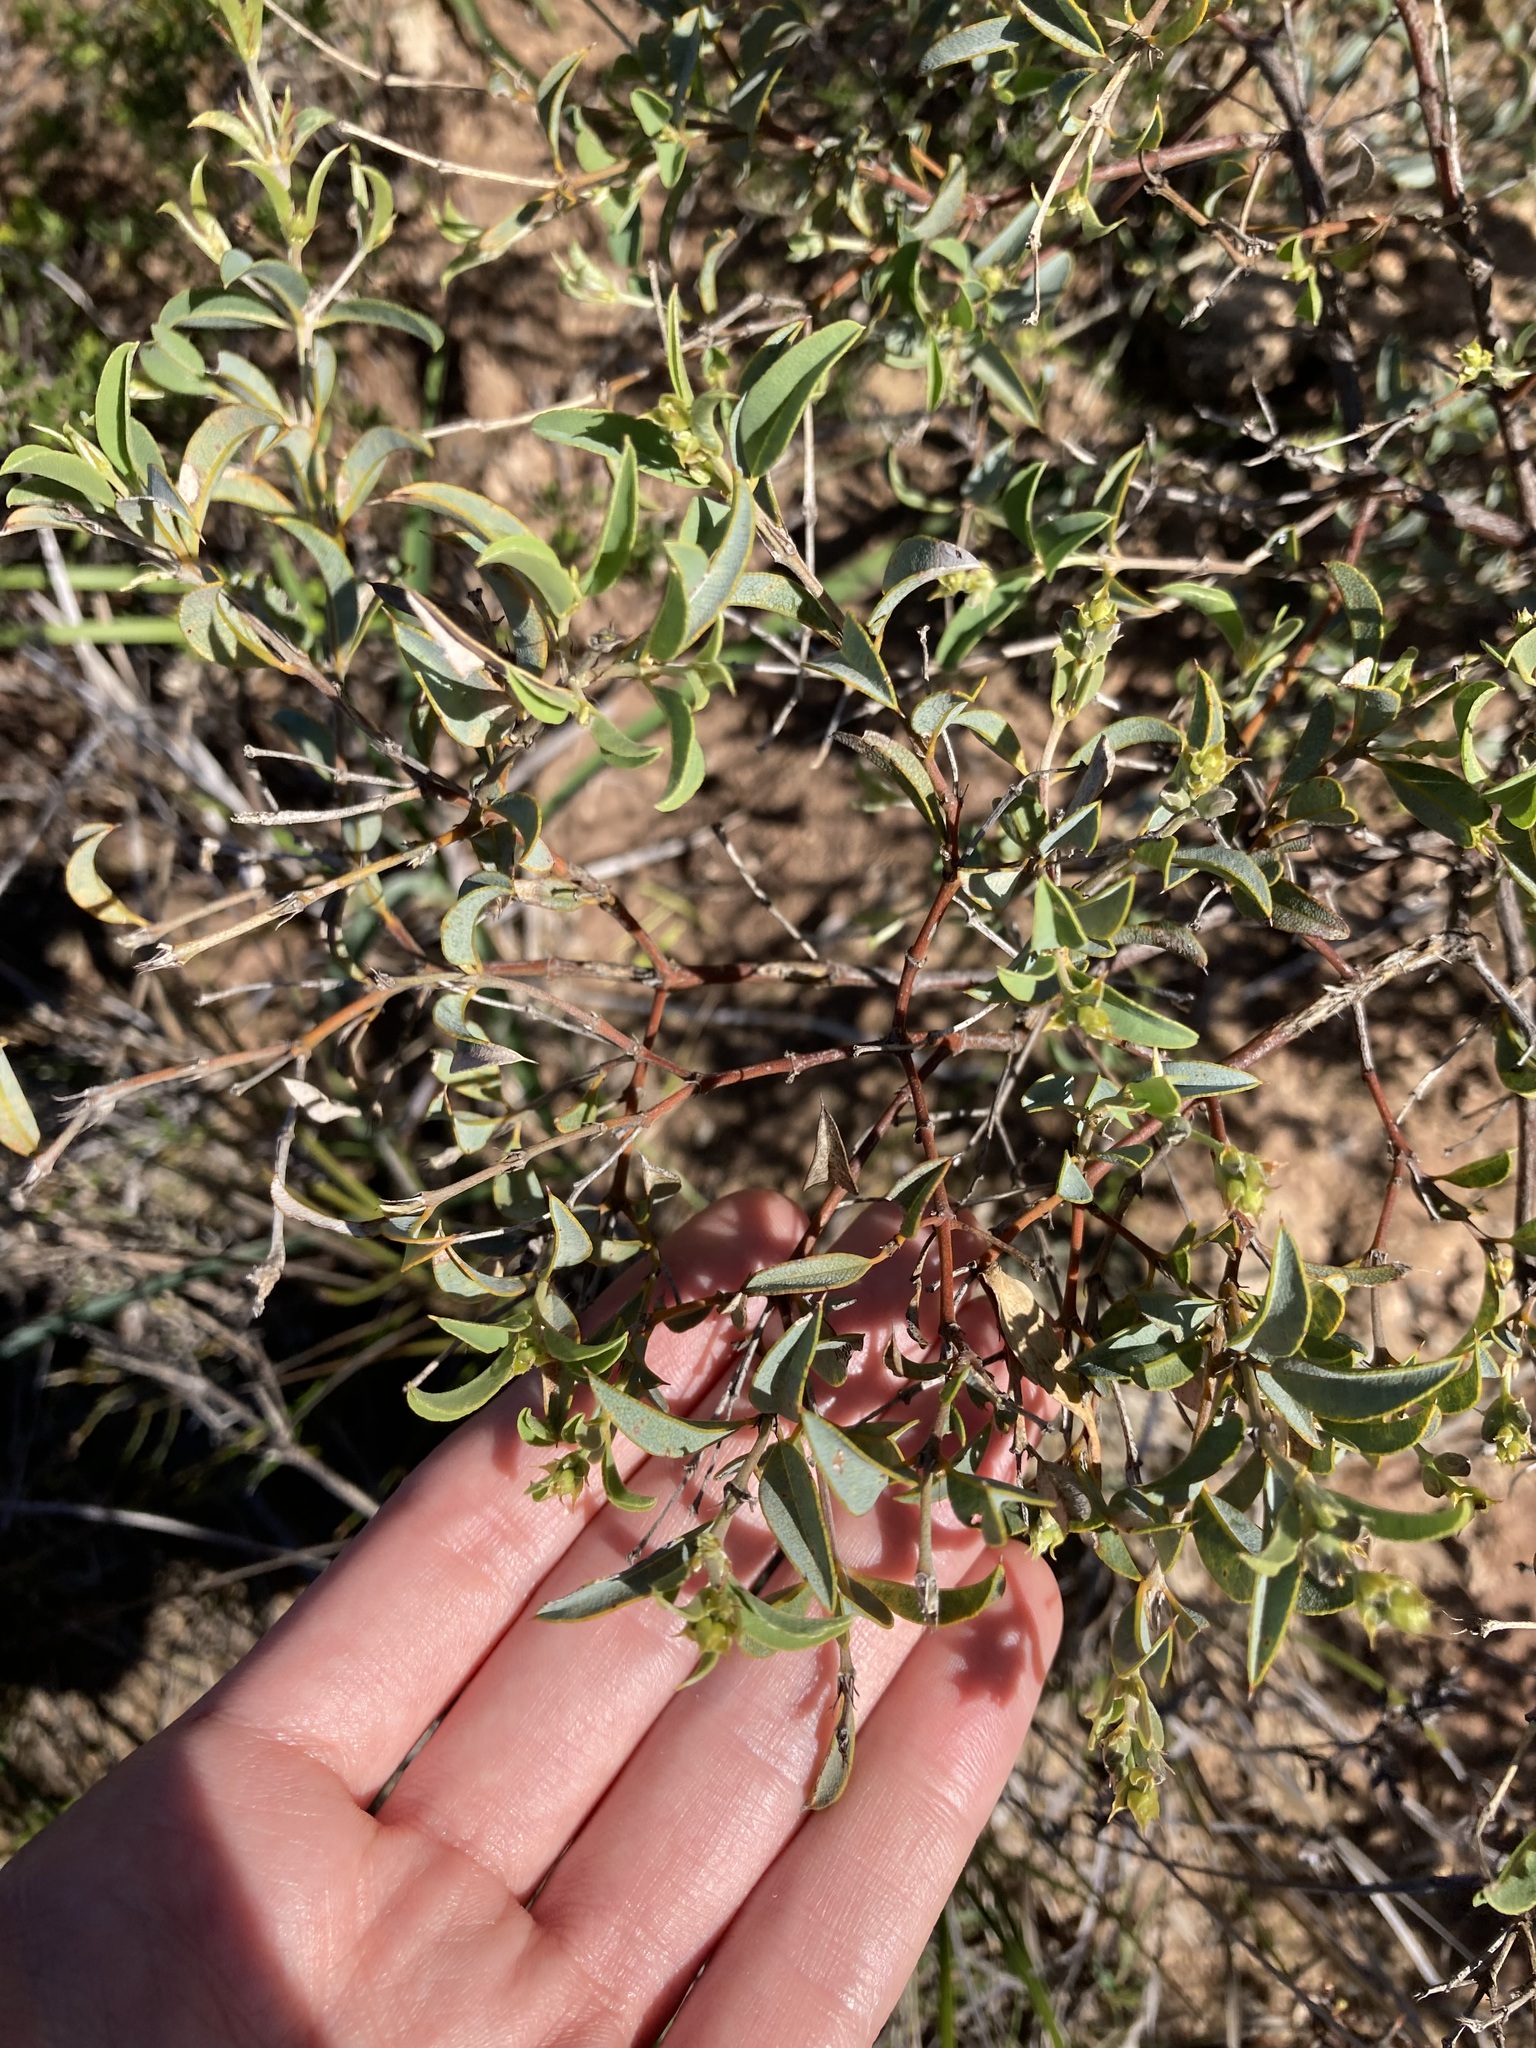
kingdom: Plantae
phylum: Tracheophyta
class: Magnoliopsida
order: Fabales
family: Fabaceae
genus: Gastrolobium
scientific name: Gastrolobium oxylobioides
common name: Champion bay poison
